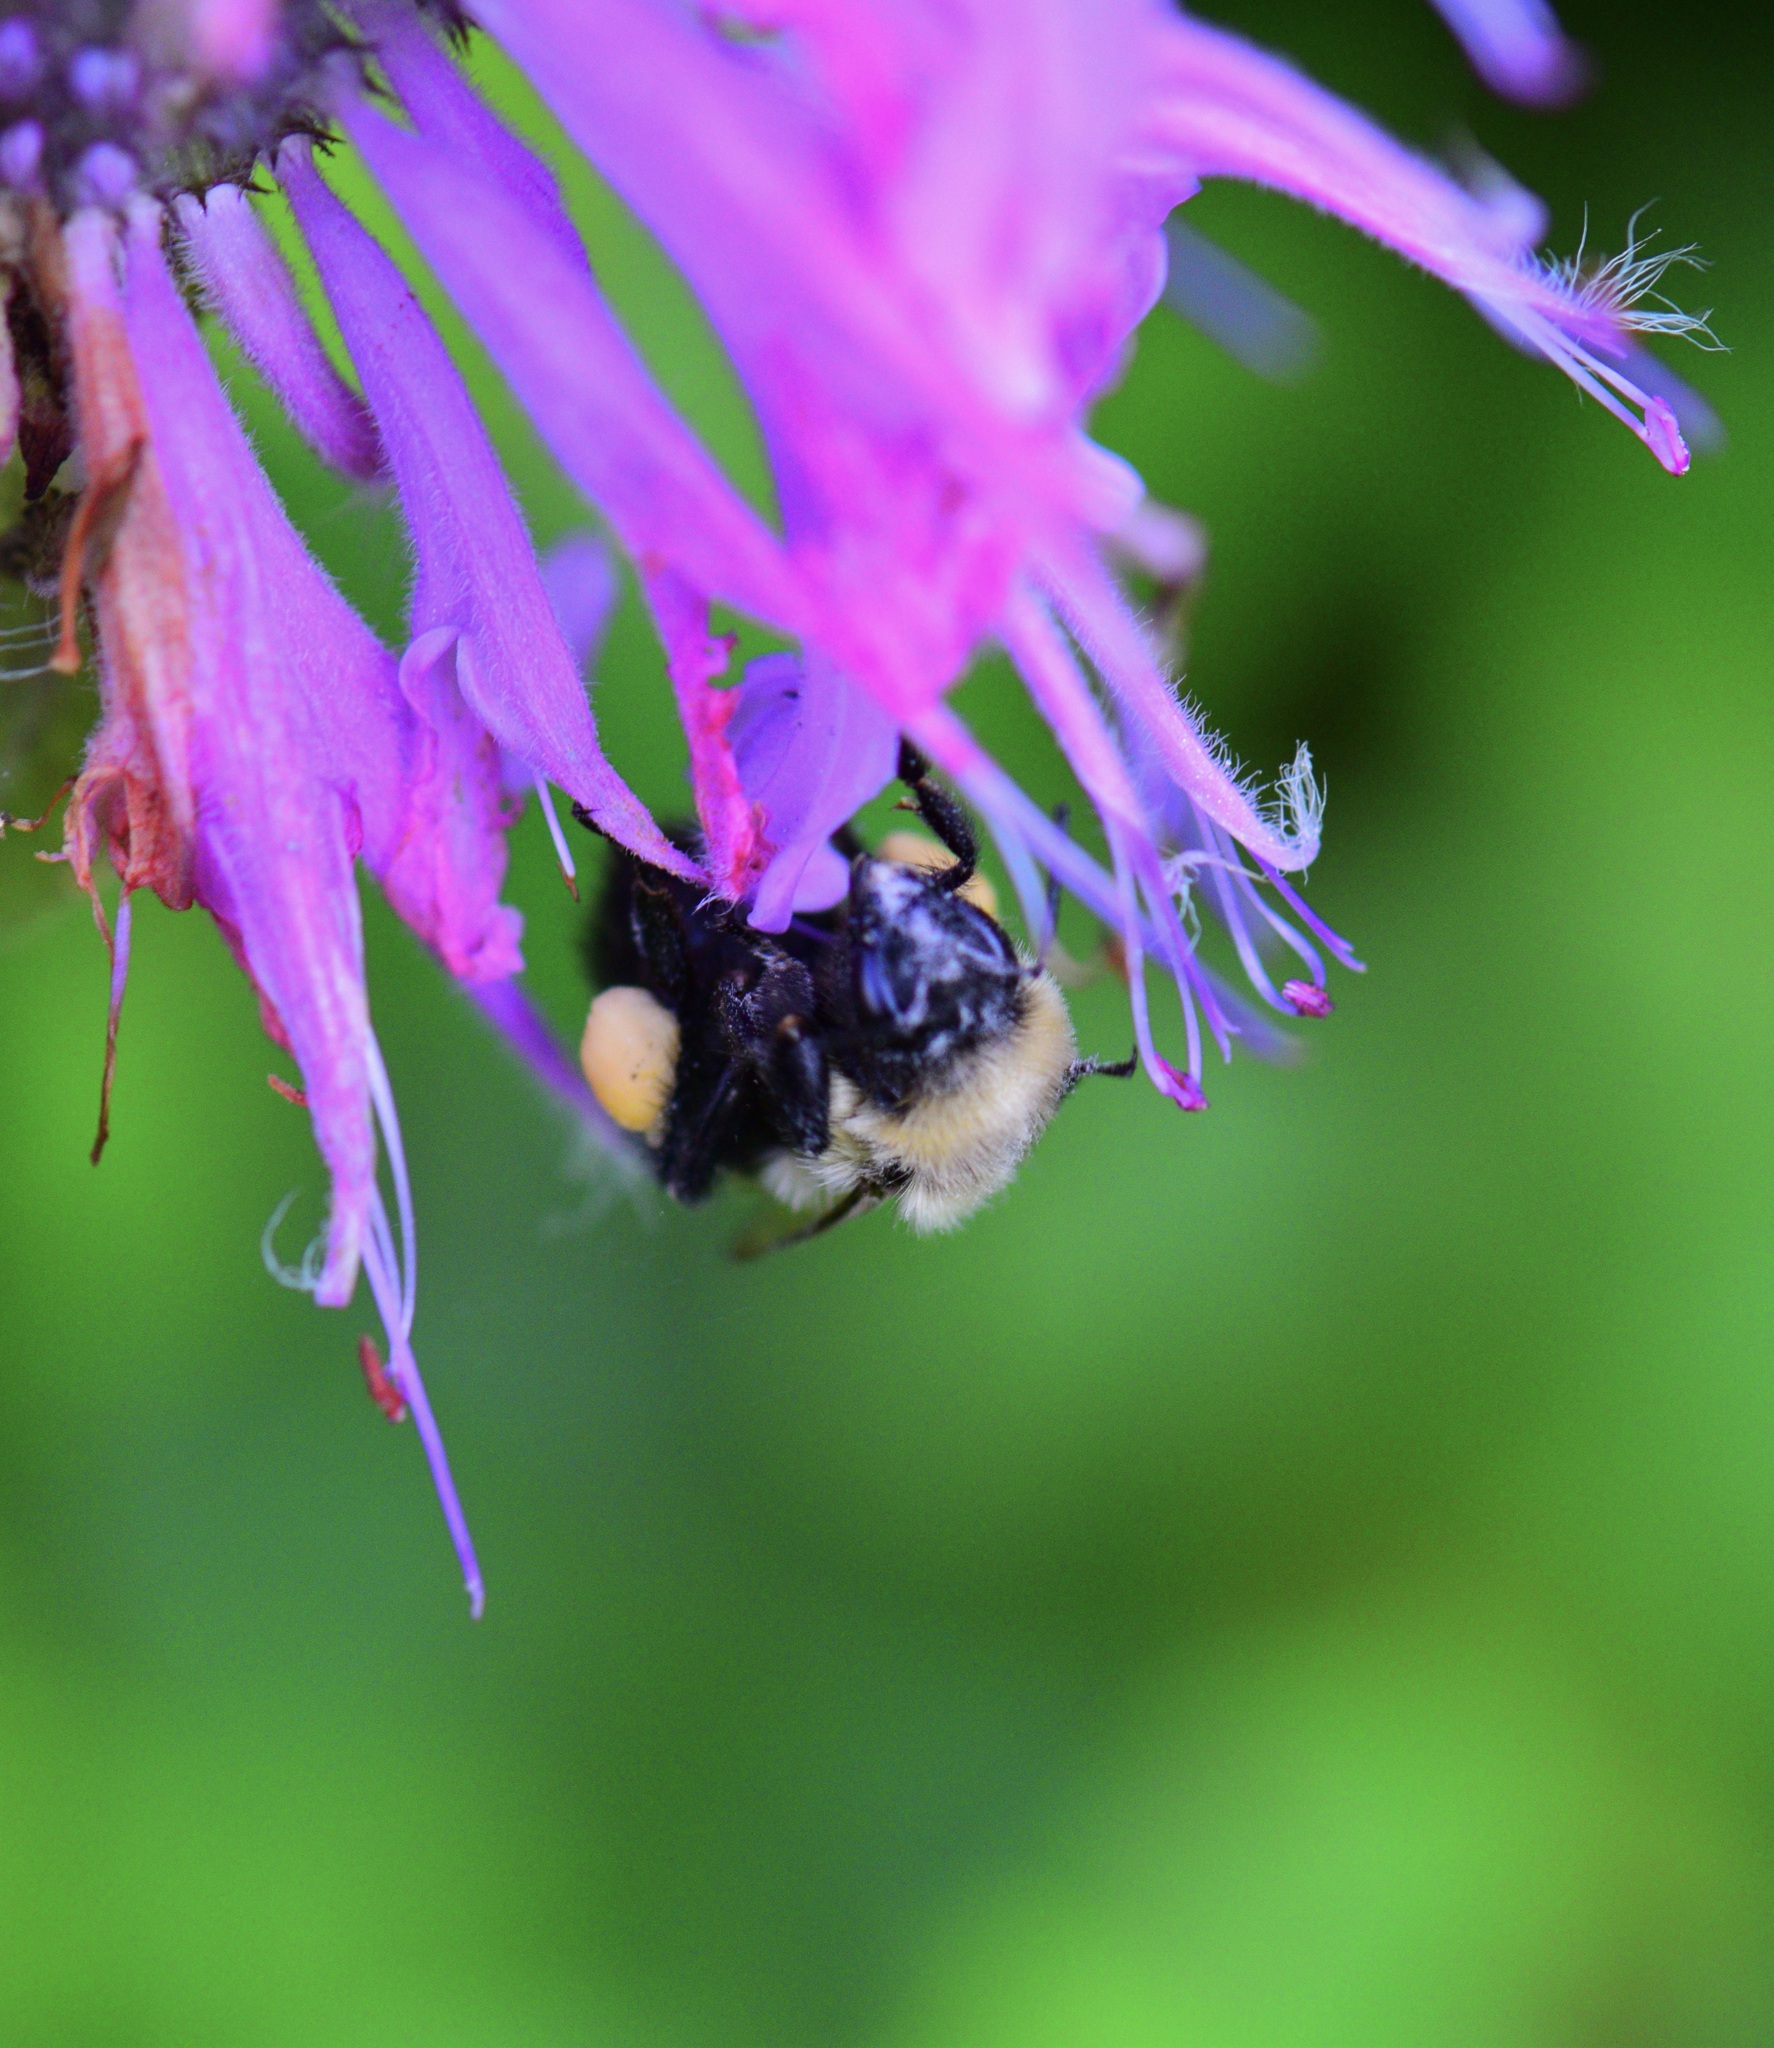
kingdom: Animalia
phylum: Arthropoda
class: Insecta
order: Hymenoptera
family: Apidae
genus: Bombus
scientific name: Bombus impatiens
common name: Common eastern bumble bee
